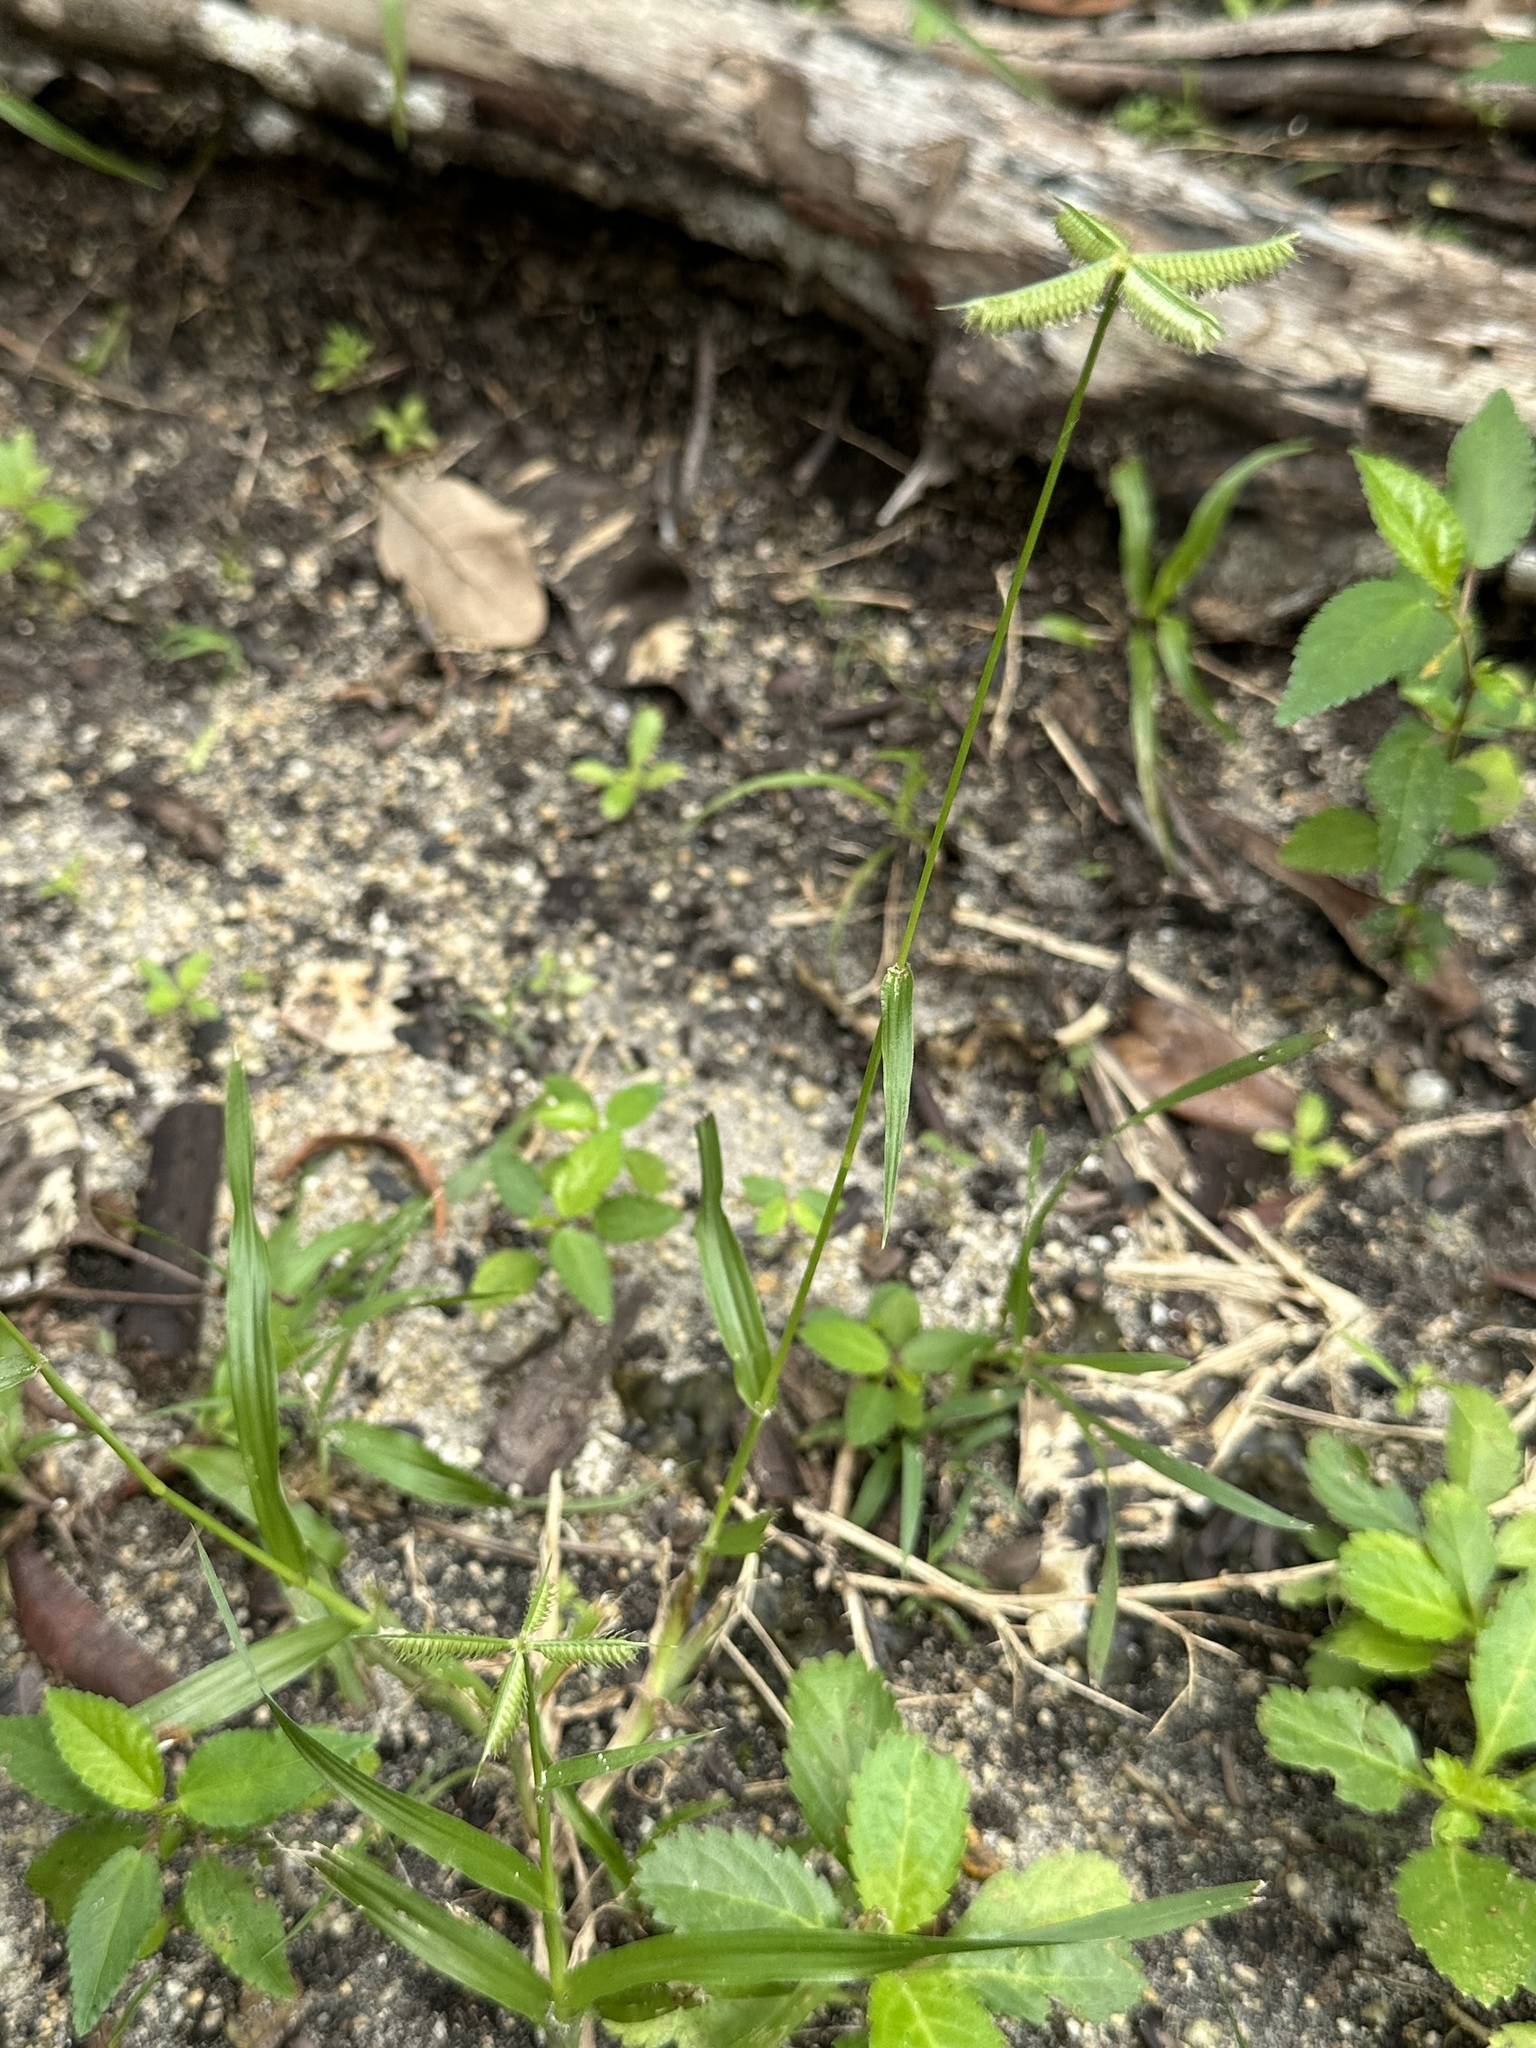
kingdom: Plantae
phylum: Tracheophyta
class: Liliopsida
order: Poales
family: Poaceae
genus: Dactyloctenium
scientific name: Dactyloctenium aegyptium
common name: Egyptian grass
